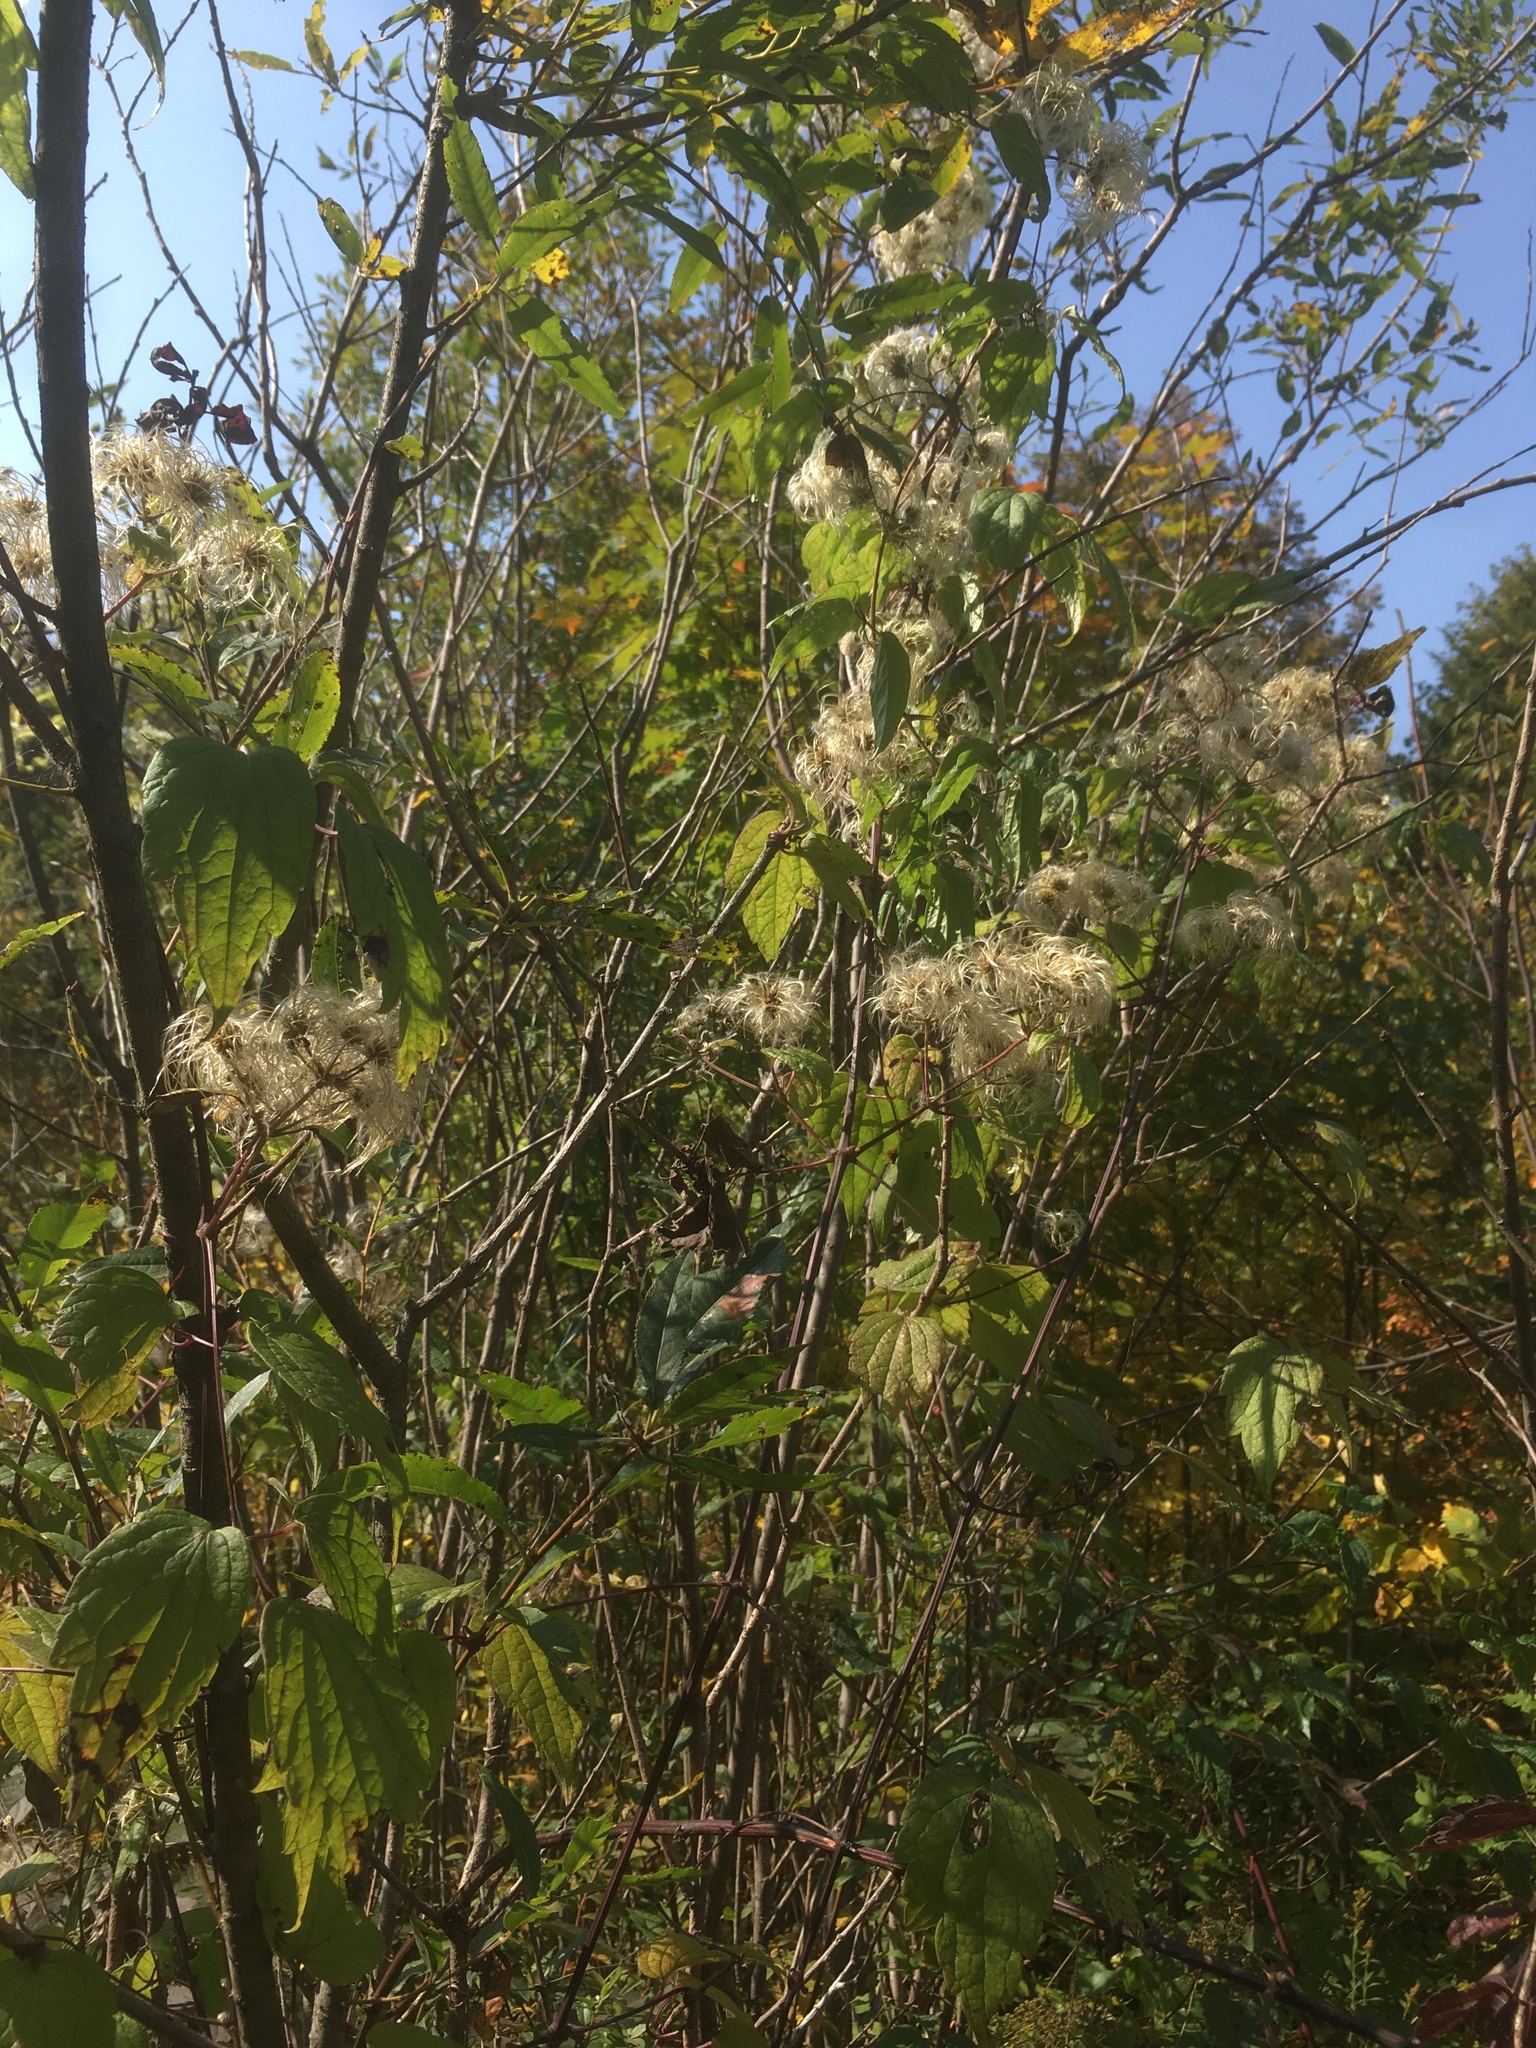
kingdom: Plantae
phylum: Tracheophyta
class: Magnoliopsida
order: Ranunculales
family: Ranunculaceae
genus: Clematis
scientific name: Clematis virginiana
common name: Virgin's-bower
